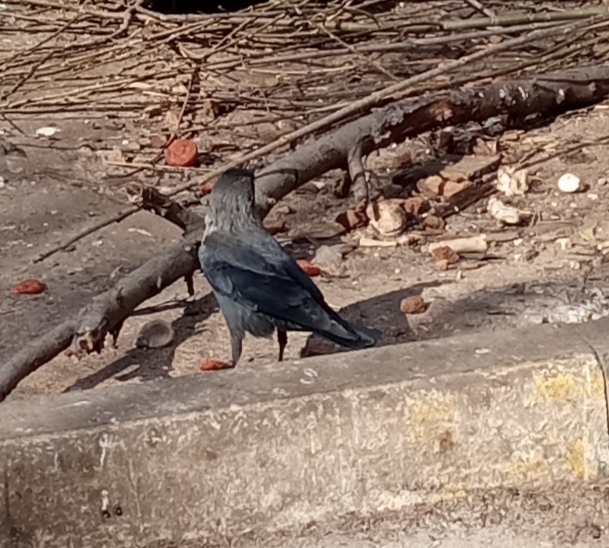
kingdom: Animalia
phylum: Chordata
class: Aves
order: Passeriformes
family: Corvidae
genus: Coloeus
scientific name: Coloeus monedula
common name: Western jackdaw
